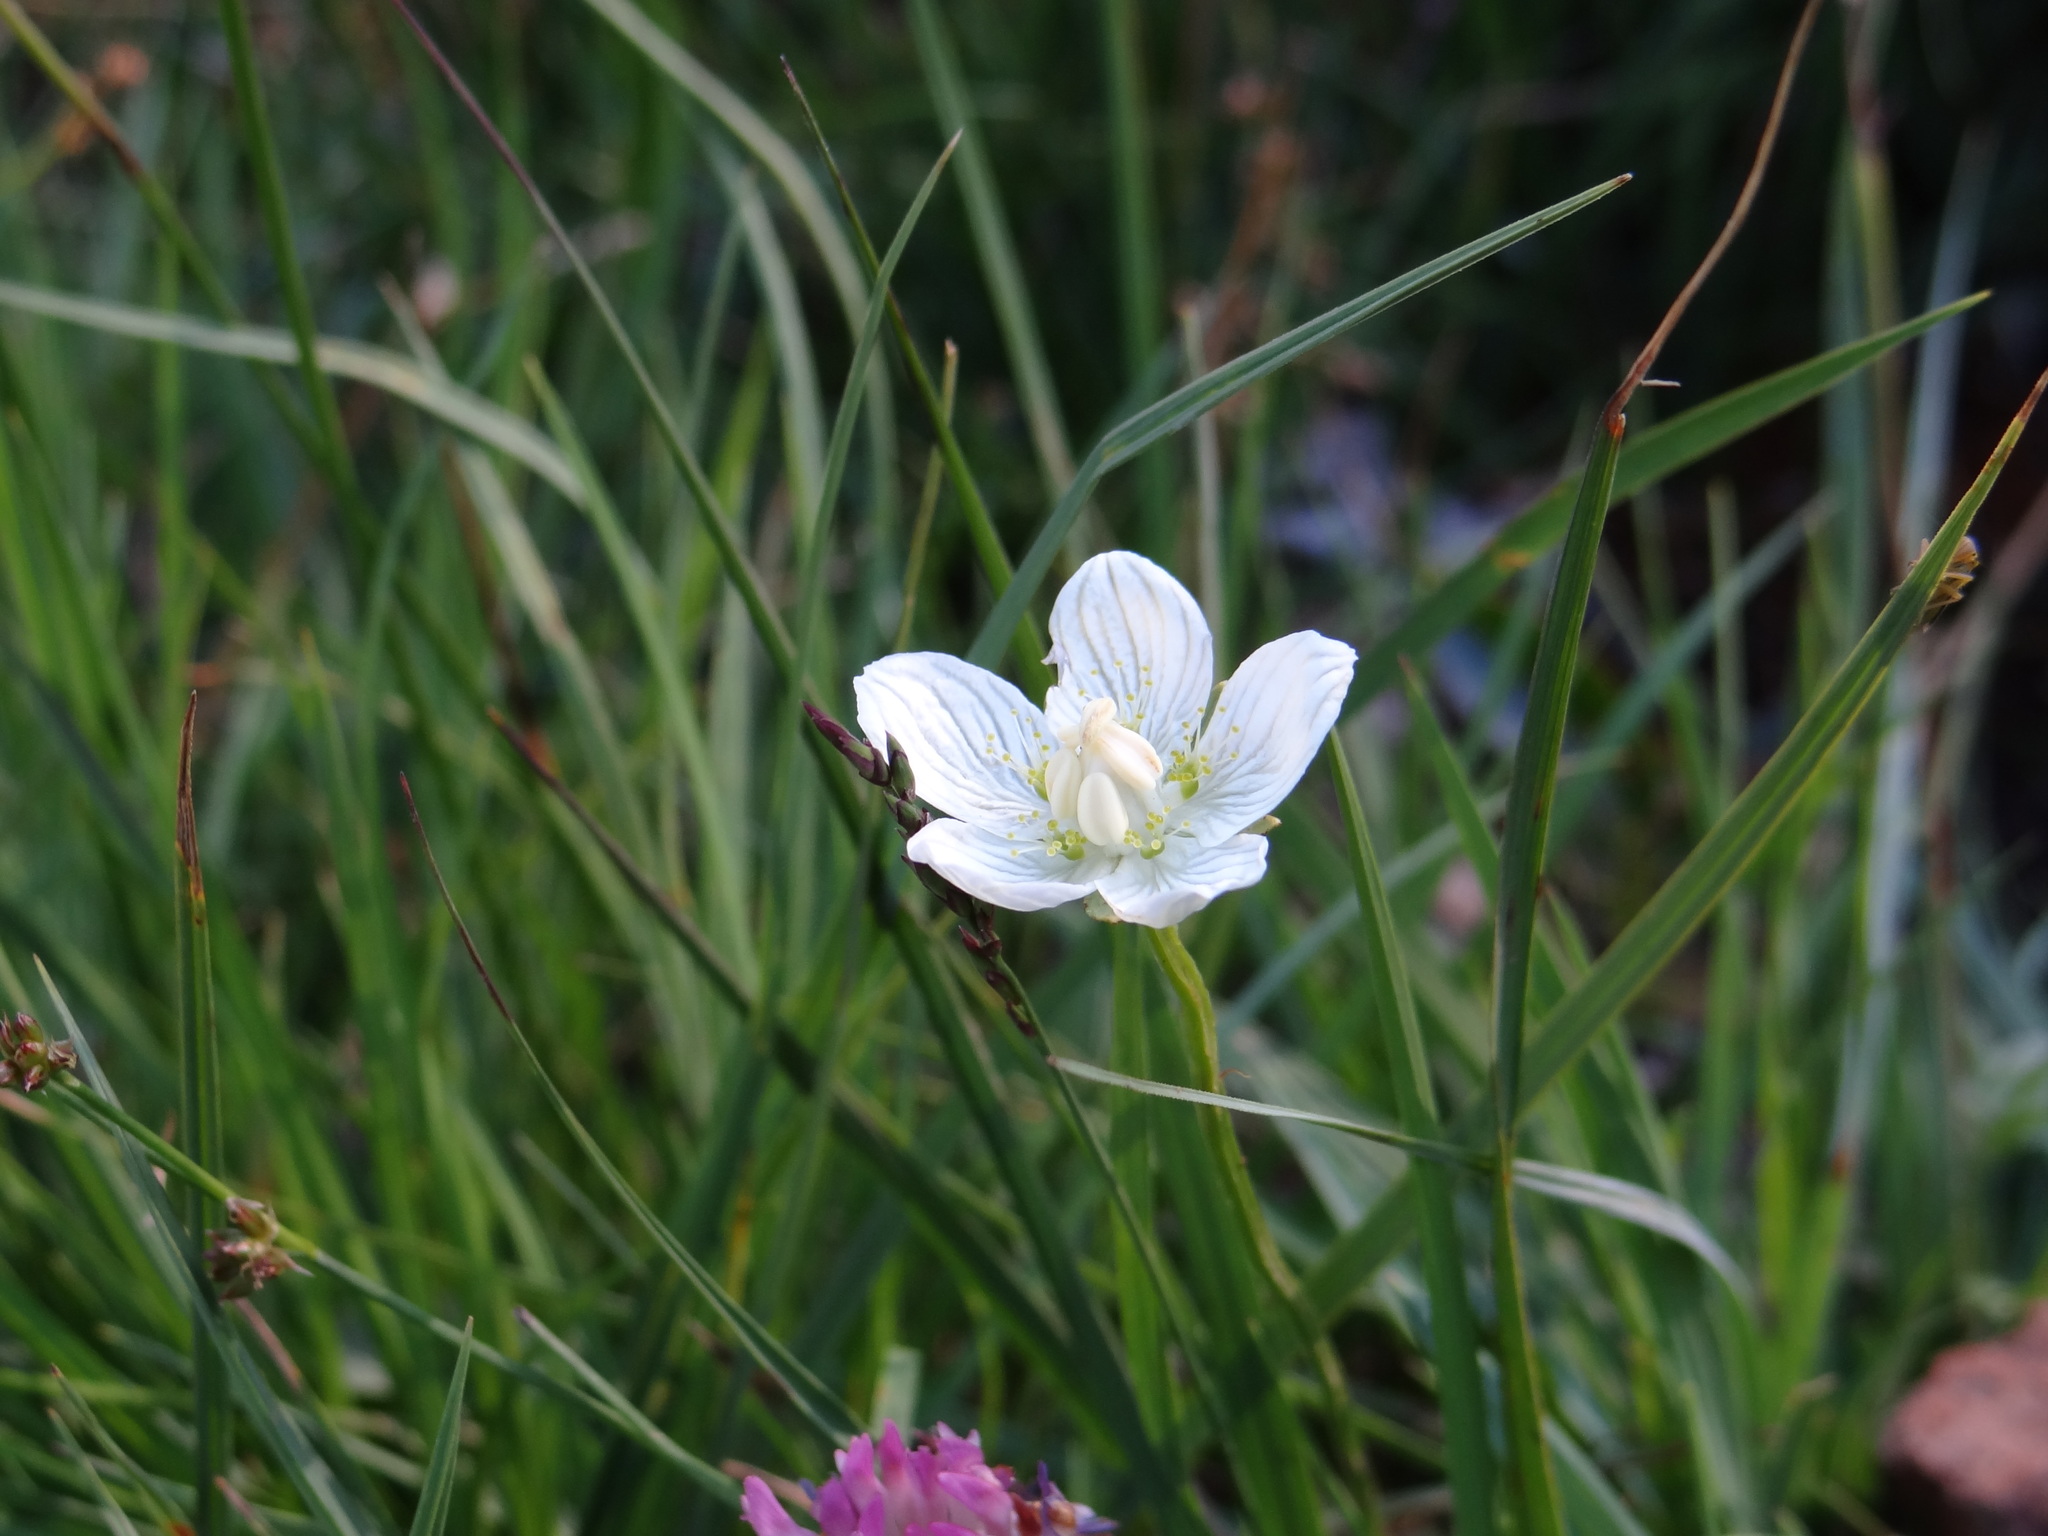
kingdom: Plantae
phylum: Tracheophyta
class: Magnoliopsida
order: Celastrales
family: Parnassiaceae
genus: Parnassia
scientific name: Parnassia palustris
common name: Grass-of-parnassus
